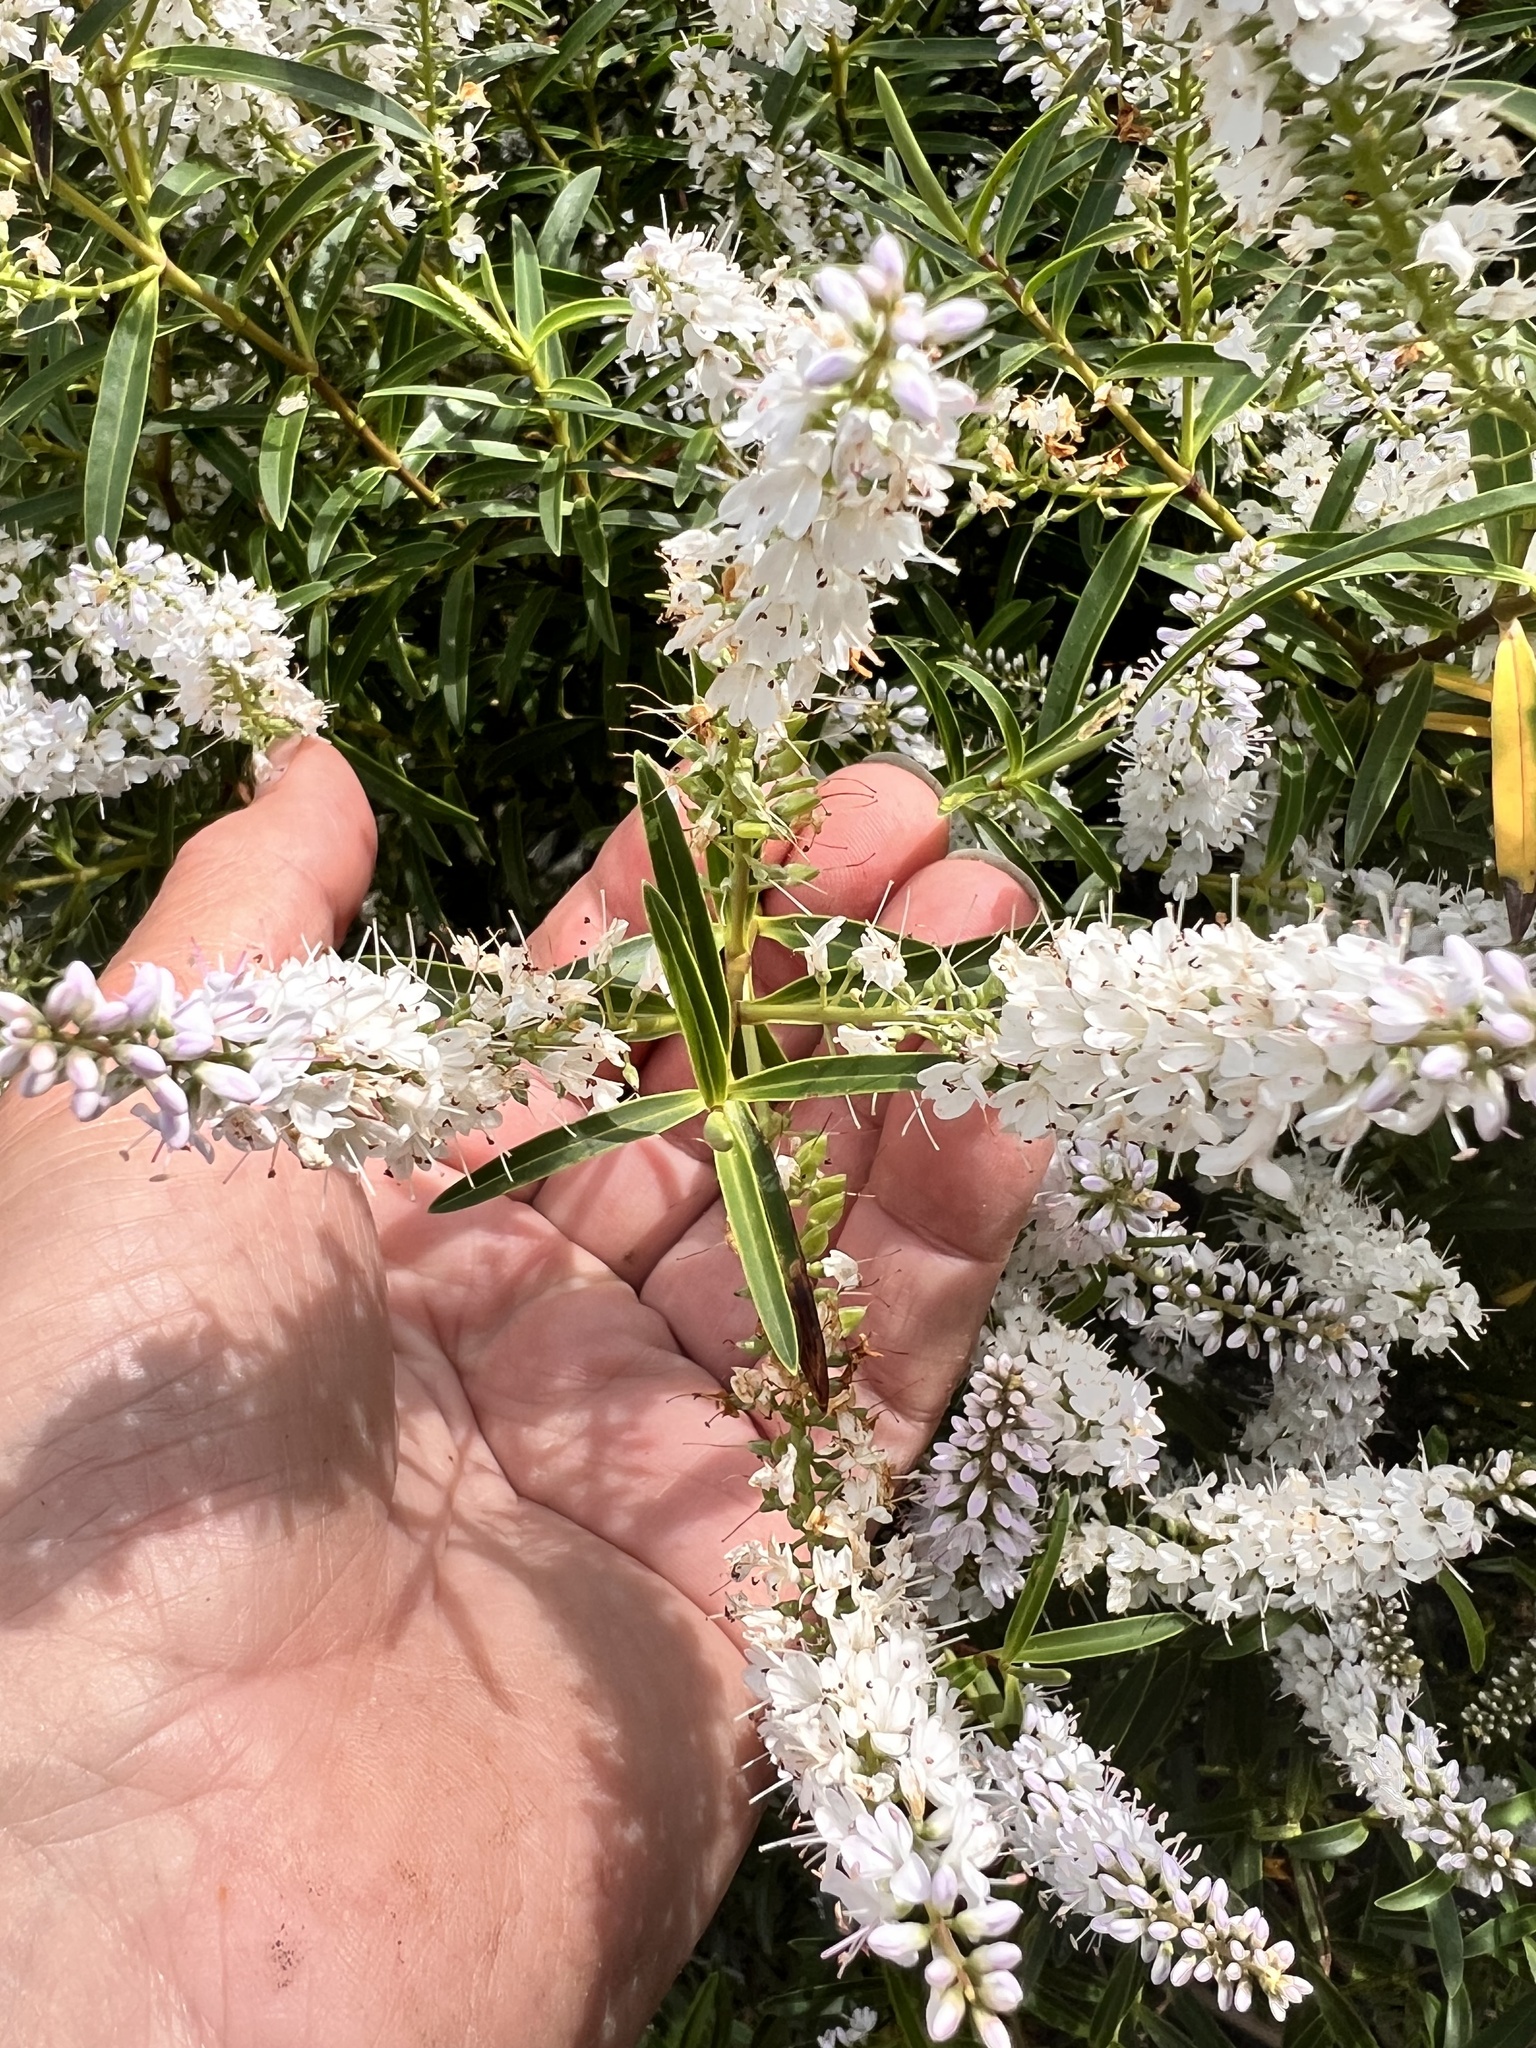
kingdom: Plantae
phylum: Tracheophyta
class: Magnoliopsida
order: Lamiales
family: Plantaginaceae
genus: Veronica
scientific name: Veronica strictissima
